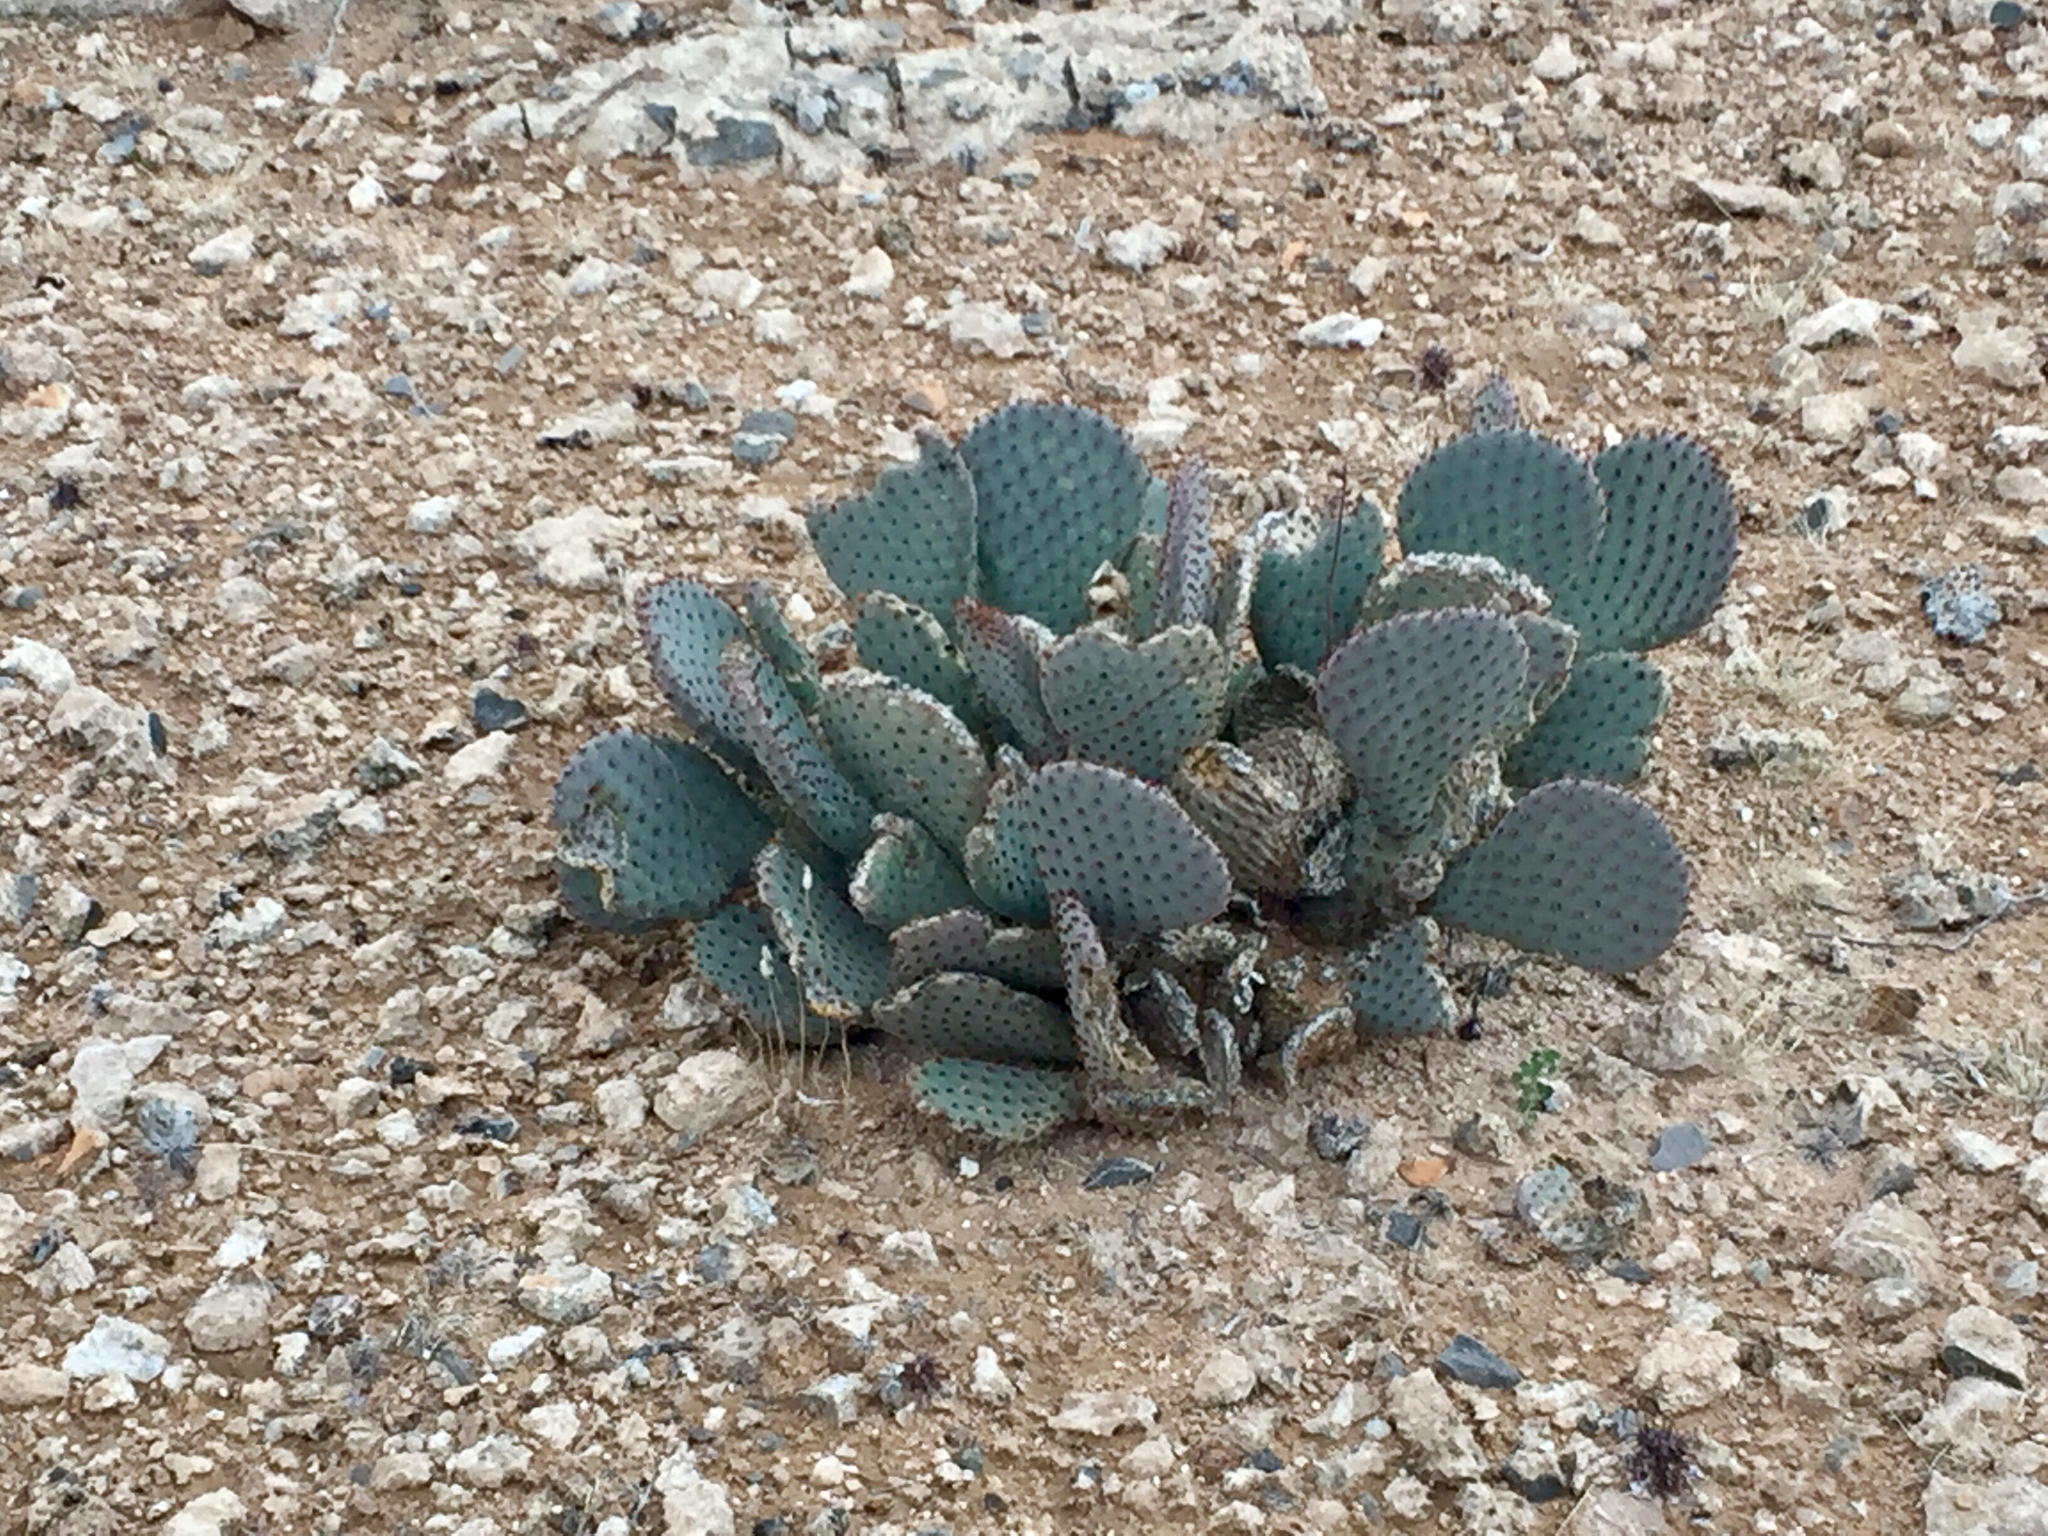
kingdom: Plantae
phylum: Tracheophyta
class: Magnoliopsida
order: Caryophyllales
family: Cactaceae
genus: Opuntia
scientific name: Opuntia basilaris
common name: Beavertail prickly-pear
